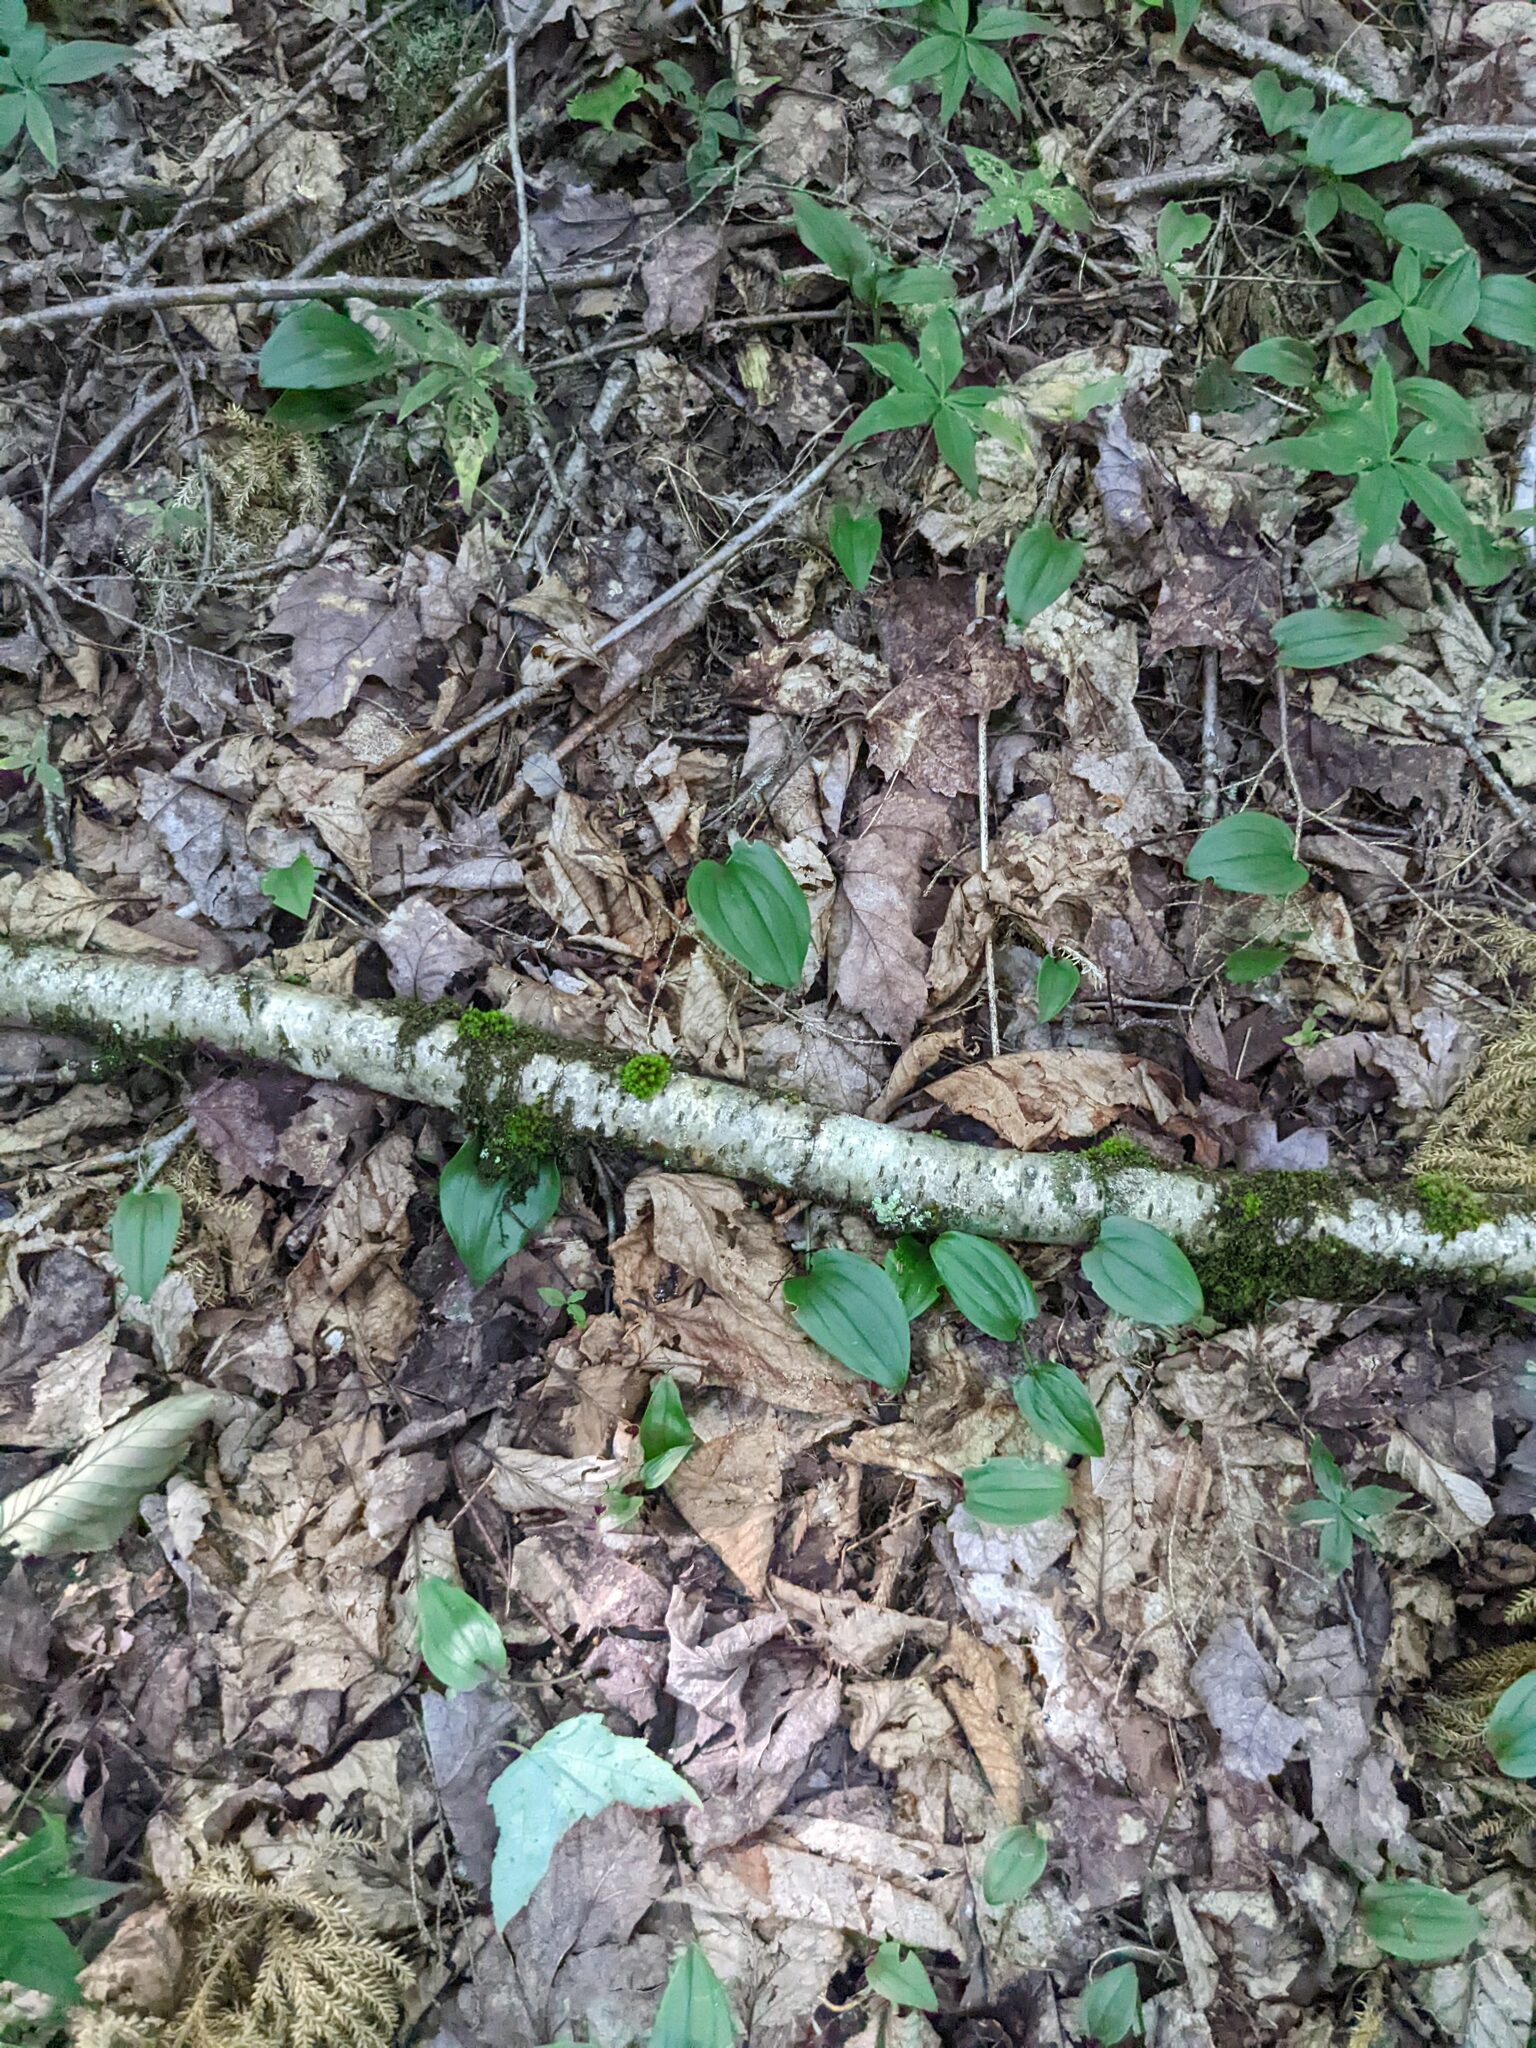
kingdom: Plantae
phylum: Tracheophyta
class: Liliopsida
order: Asparagales
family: Asparagaceae
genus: Maianthemum
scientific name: Maianthemum canadense
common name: False lily-of-the-valley
